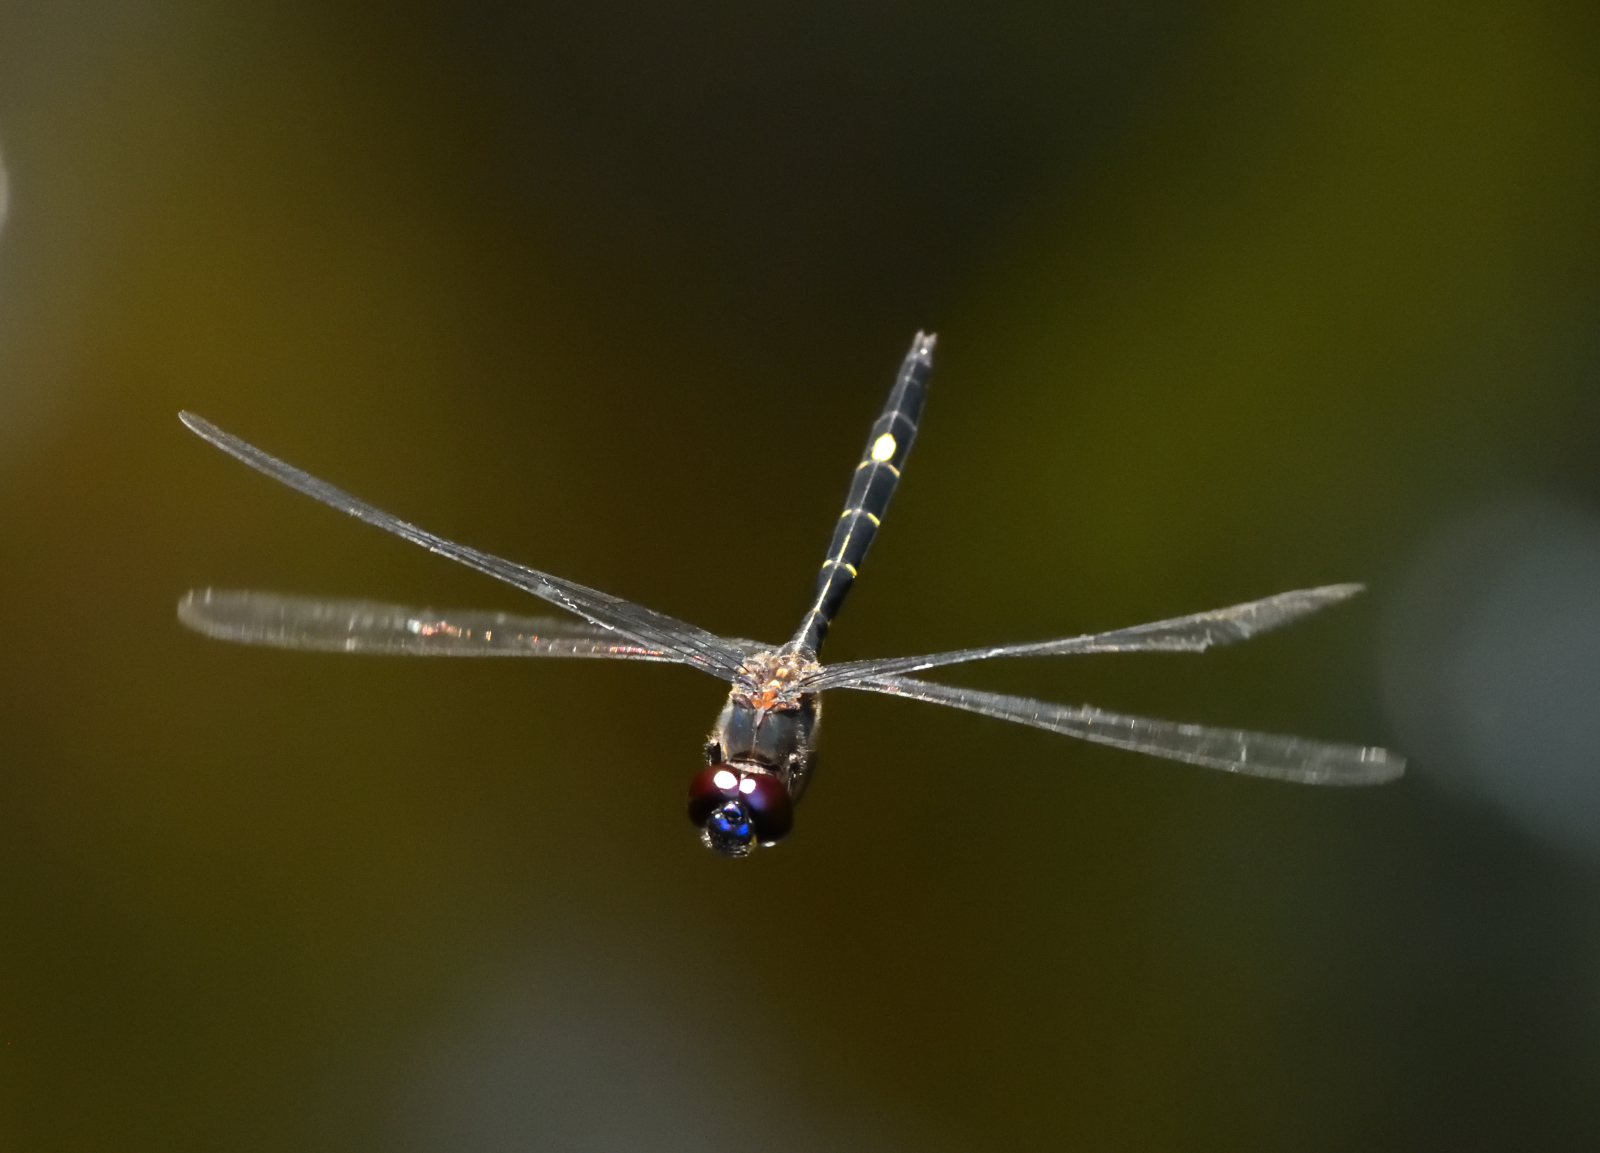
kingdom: Animalia
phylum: Arthropoda
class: Insecta
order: Odonata
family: Libellulidae
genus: Zygonyx
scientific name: Zygonyx iris
